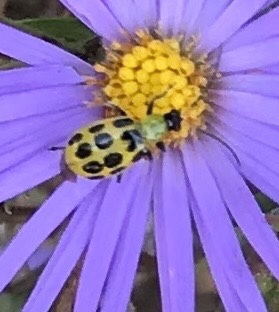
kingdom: Animalia
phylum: Arthropoda
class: Insecta
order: Coleoptera
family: Chrysomelidae
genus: Diabrotica
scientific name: Diabrotica undecimpunctata
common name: Spotted cucumber beetle
